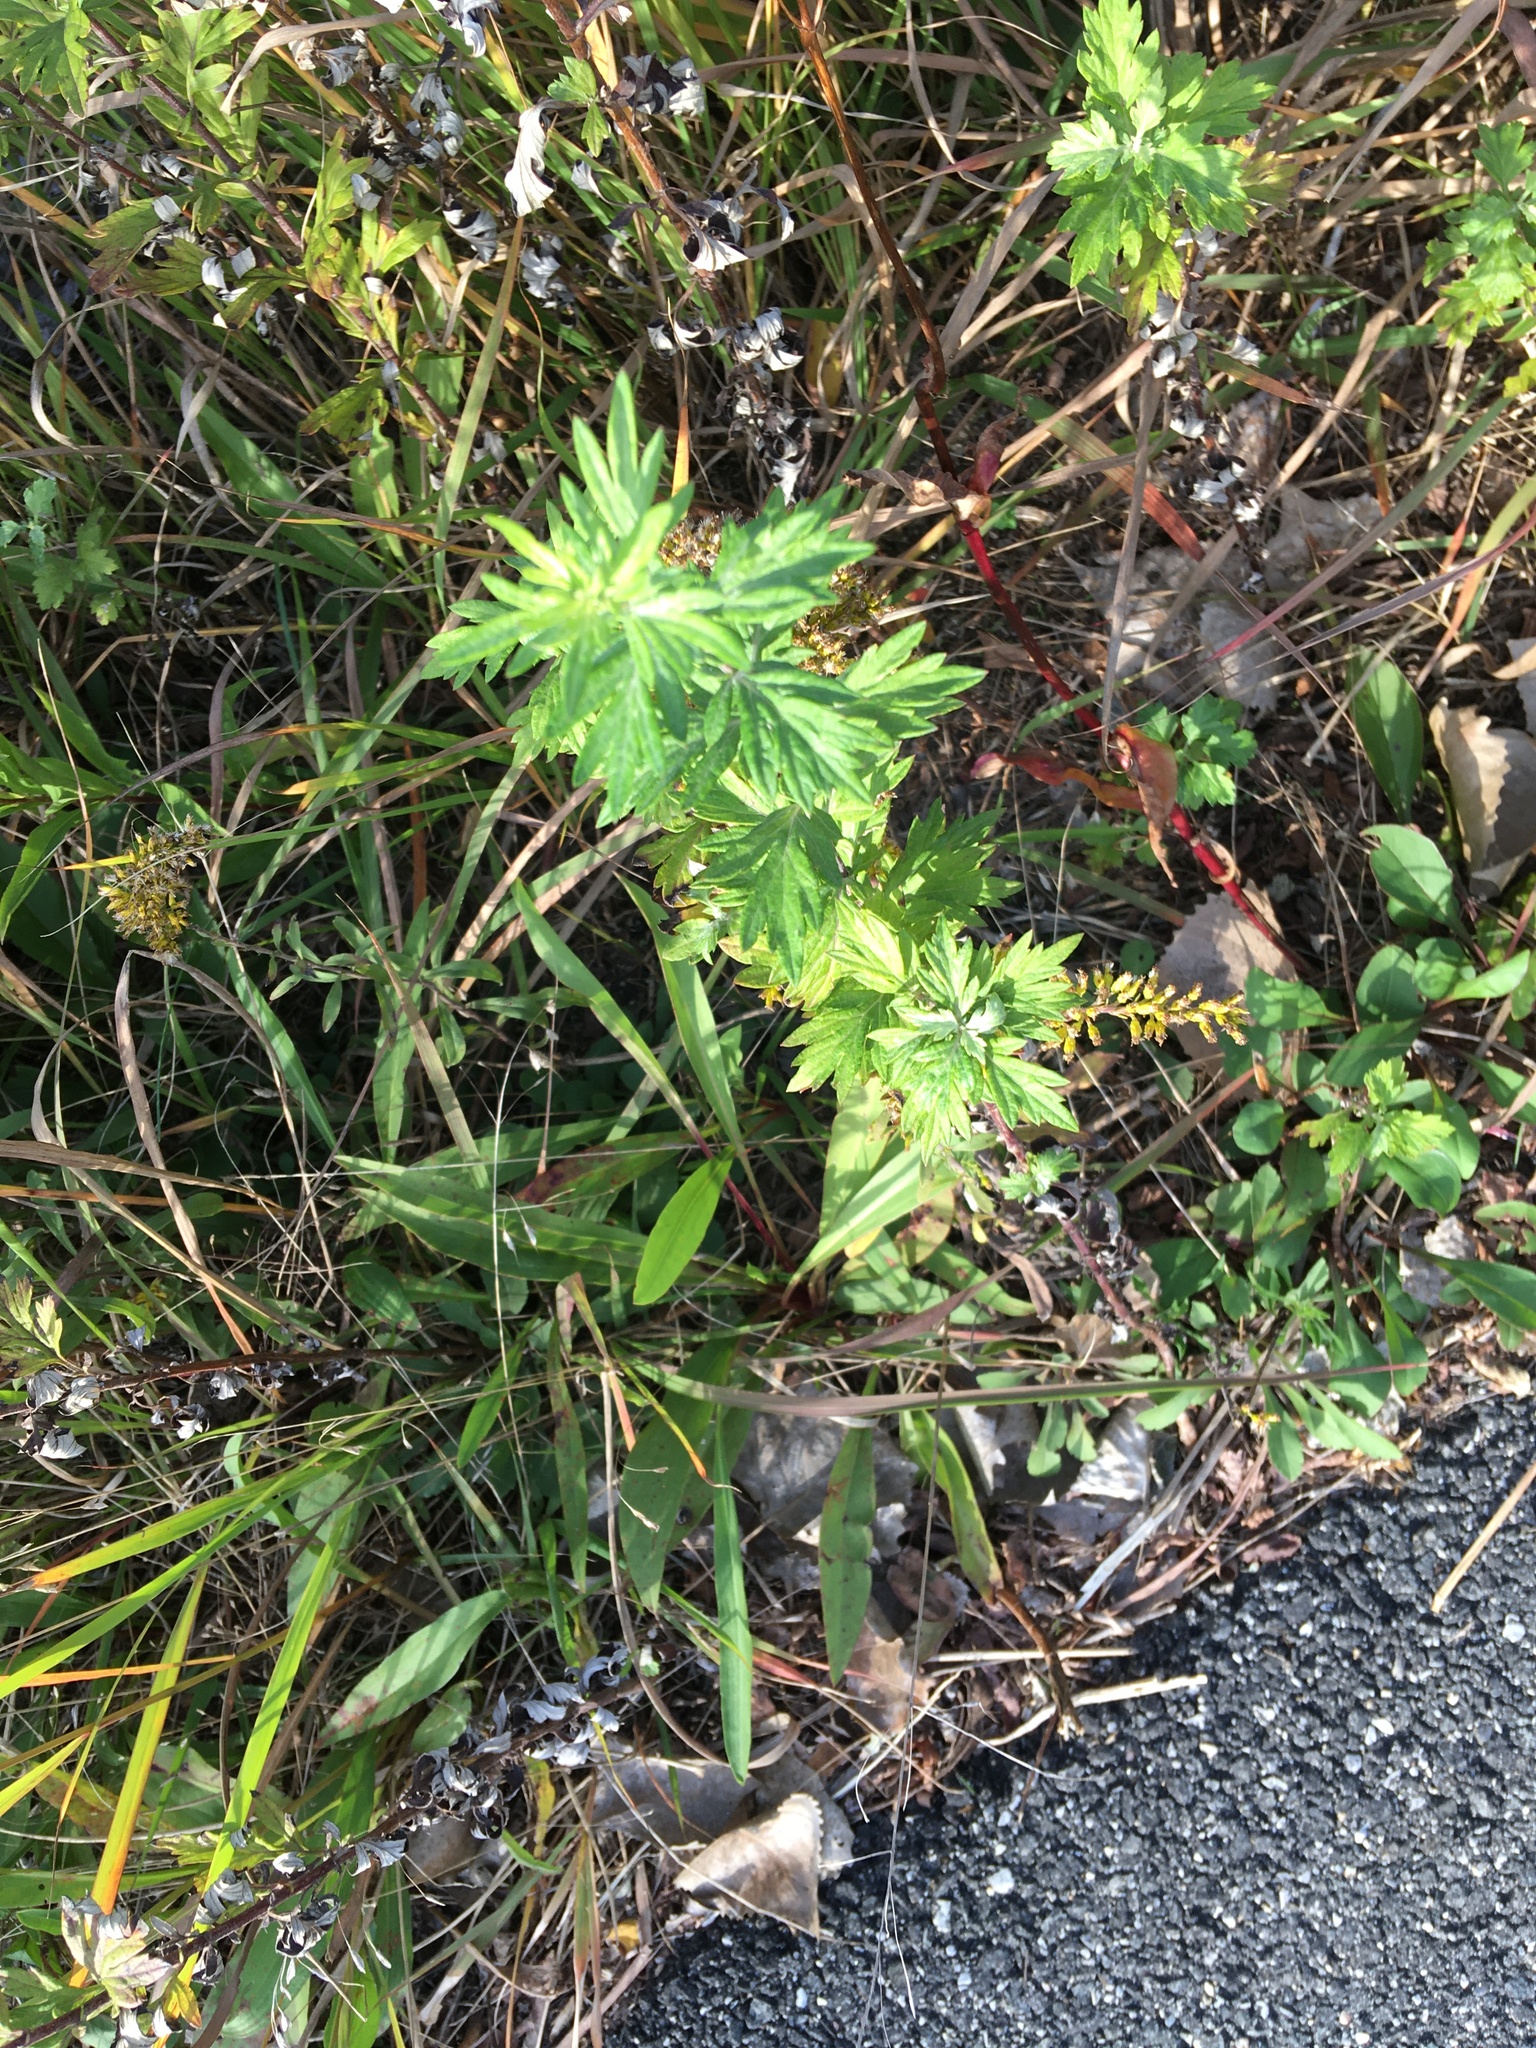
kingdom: Plantae
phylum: Tracheophyta
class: Magnoliopsida
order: Asterales
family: Asteraceae
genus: Artemisia
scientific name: Artemisia vulgaris
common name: Mugwort
